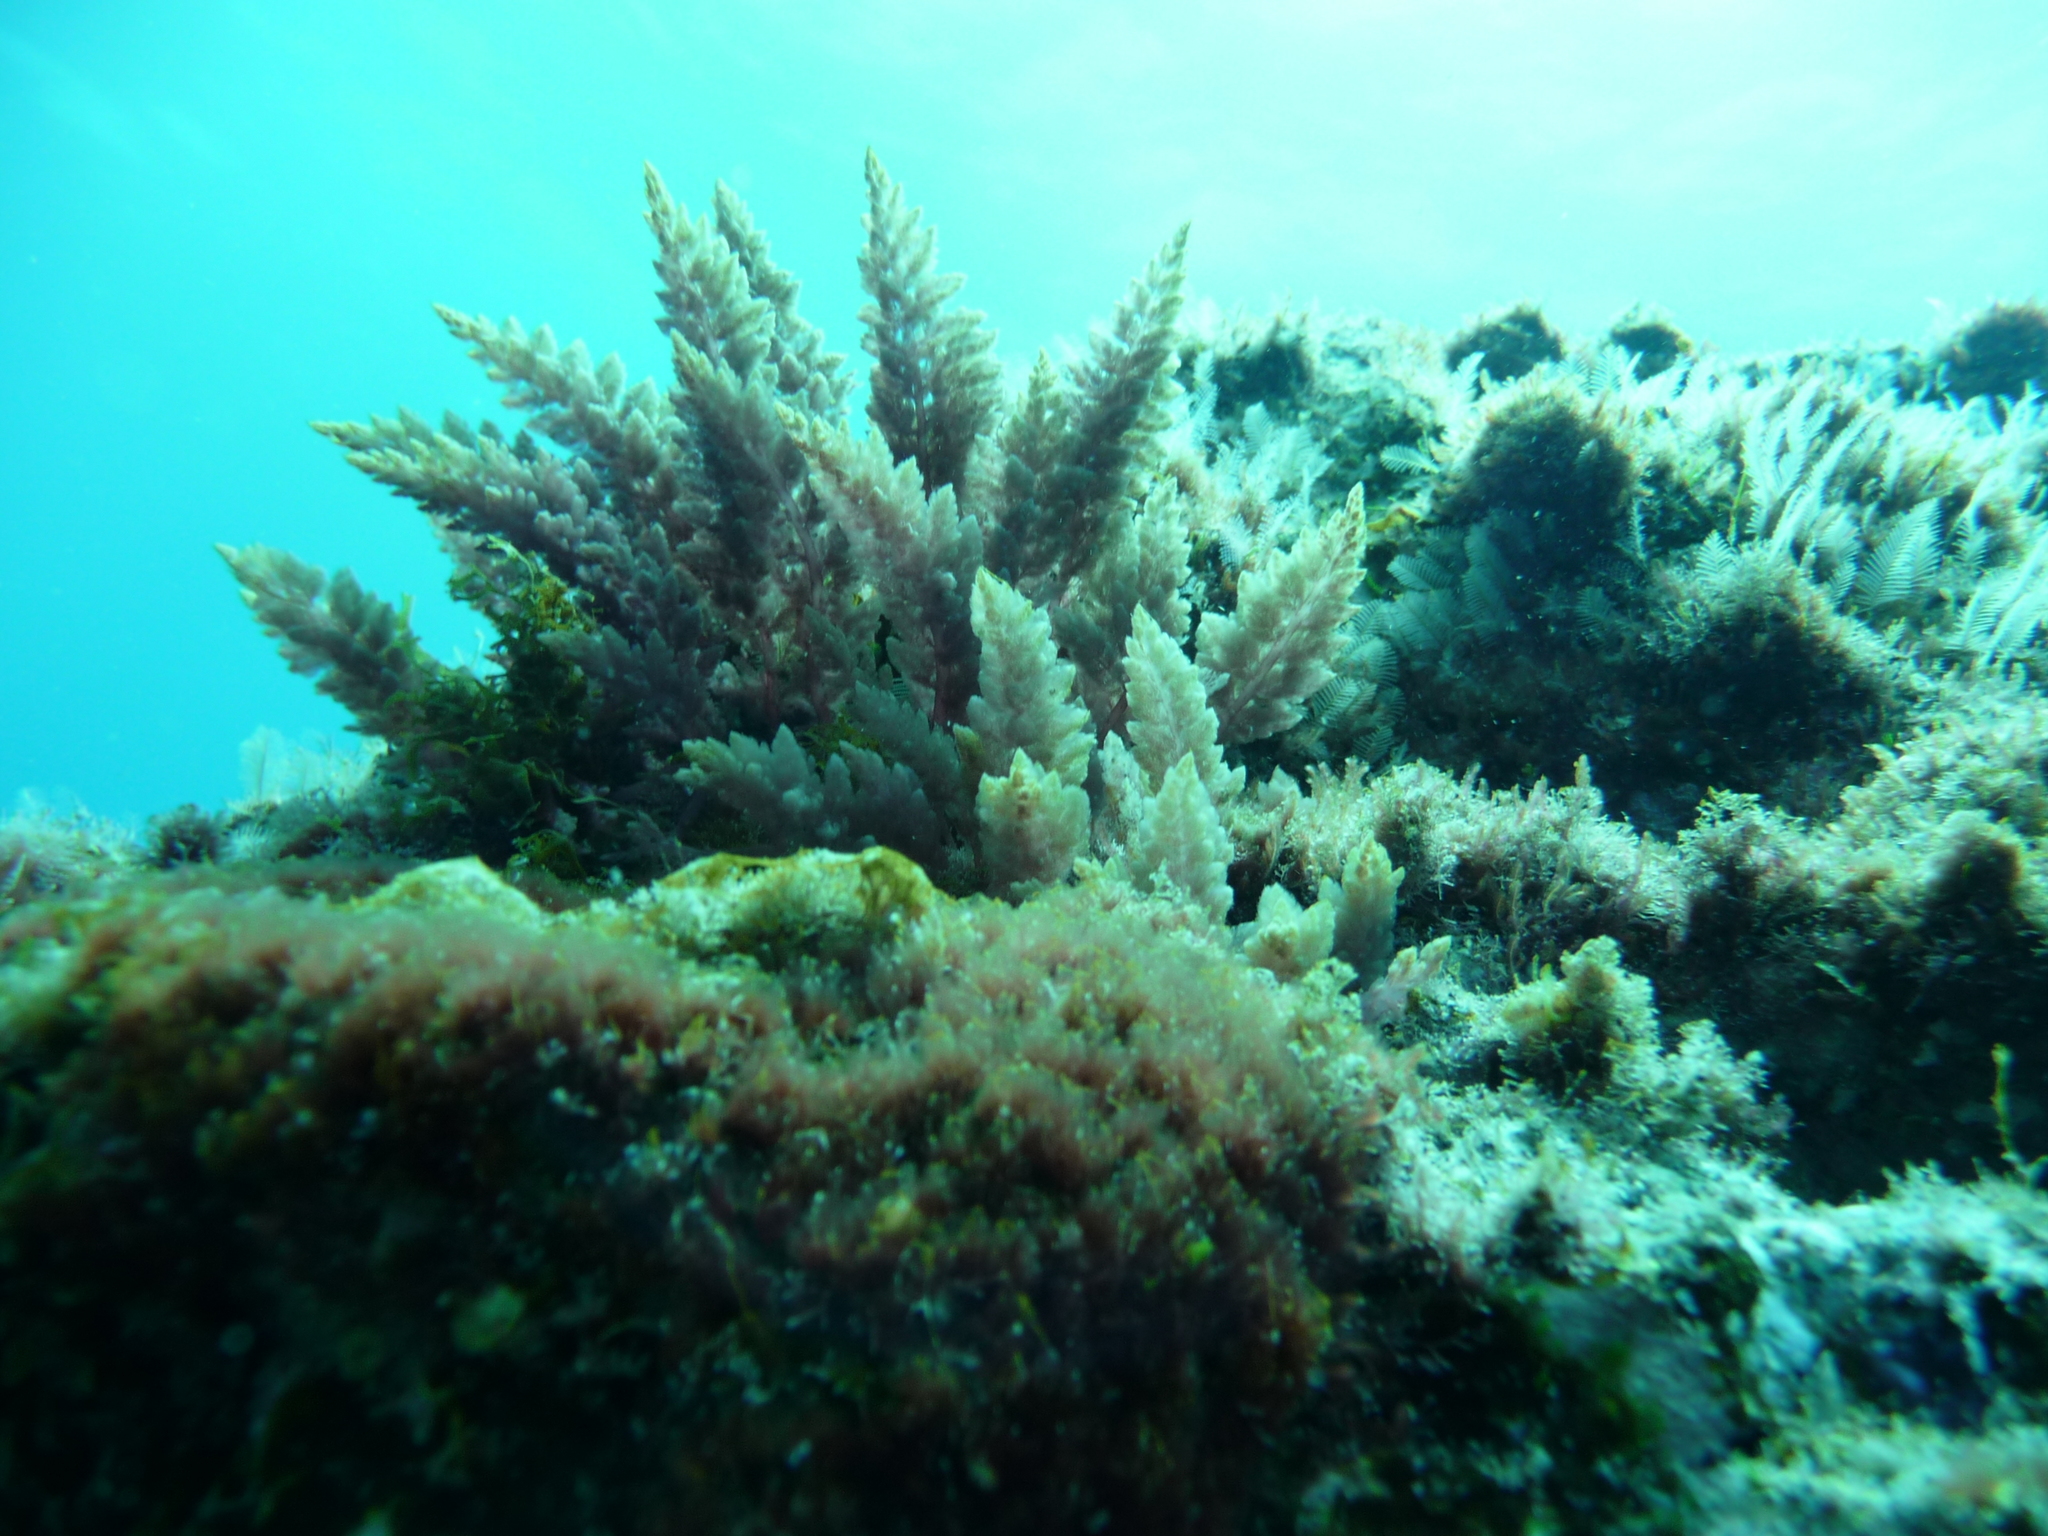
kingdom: Plantae
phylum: Rhodophyta
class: Florideophyceae
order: Bonnemaisoniales
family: Bonnemaisoniaceae
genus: Asparagopsis
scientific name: Asparagopsis taxiformis
